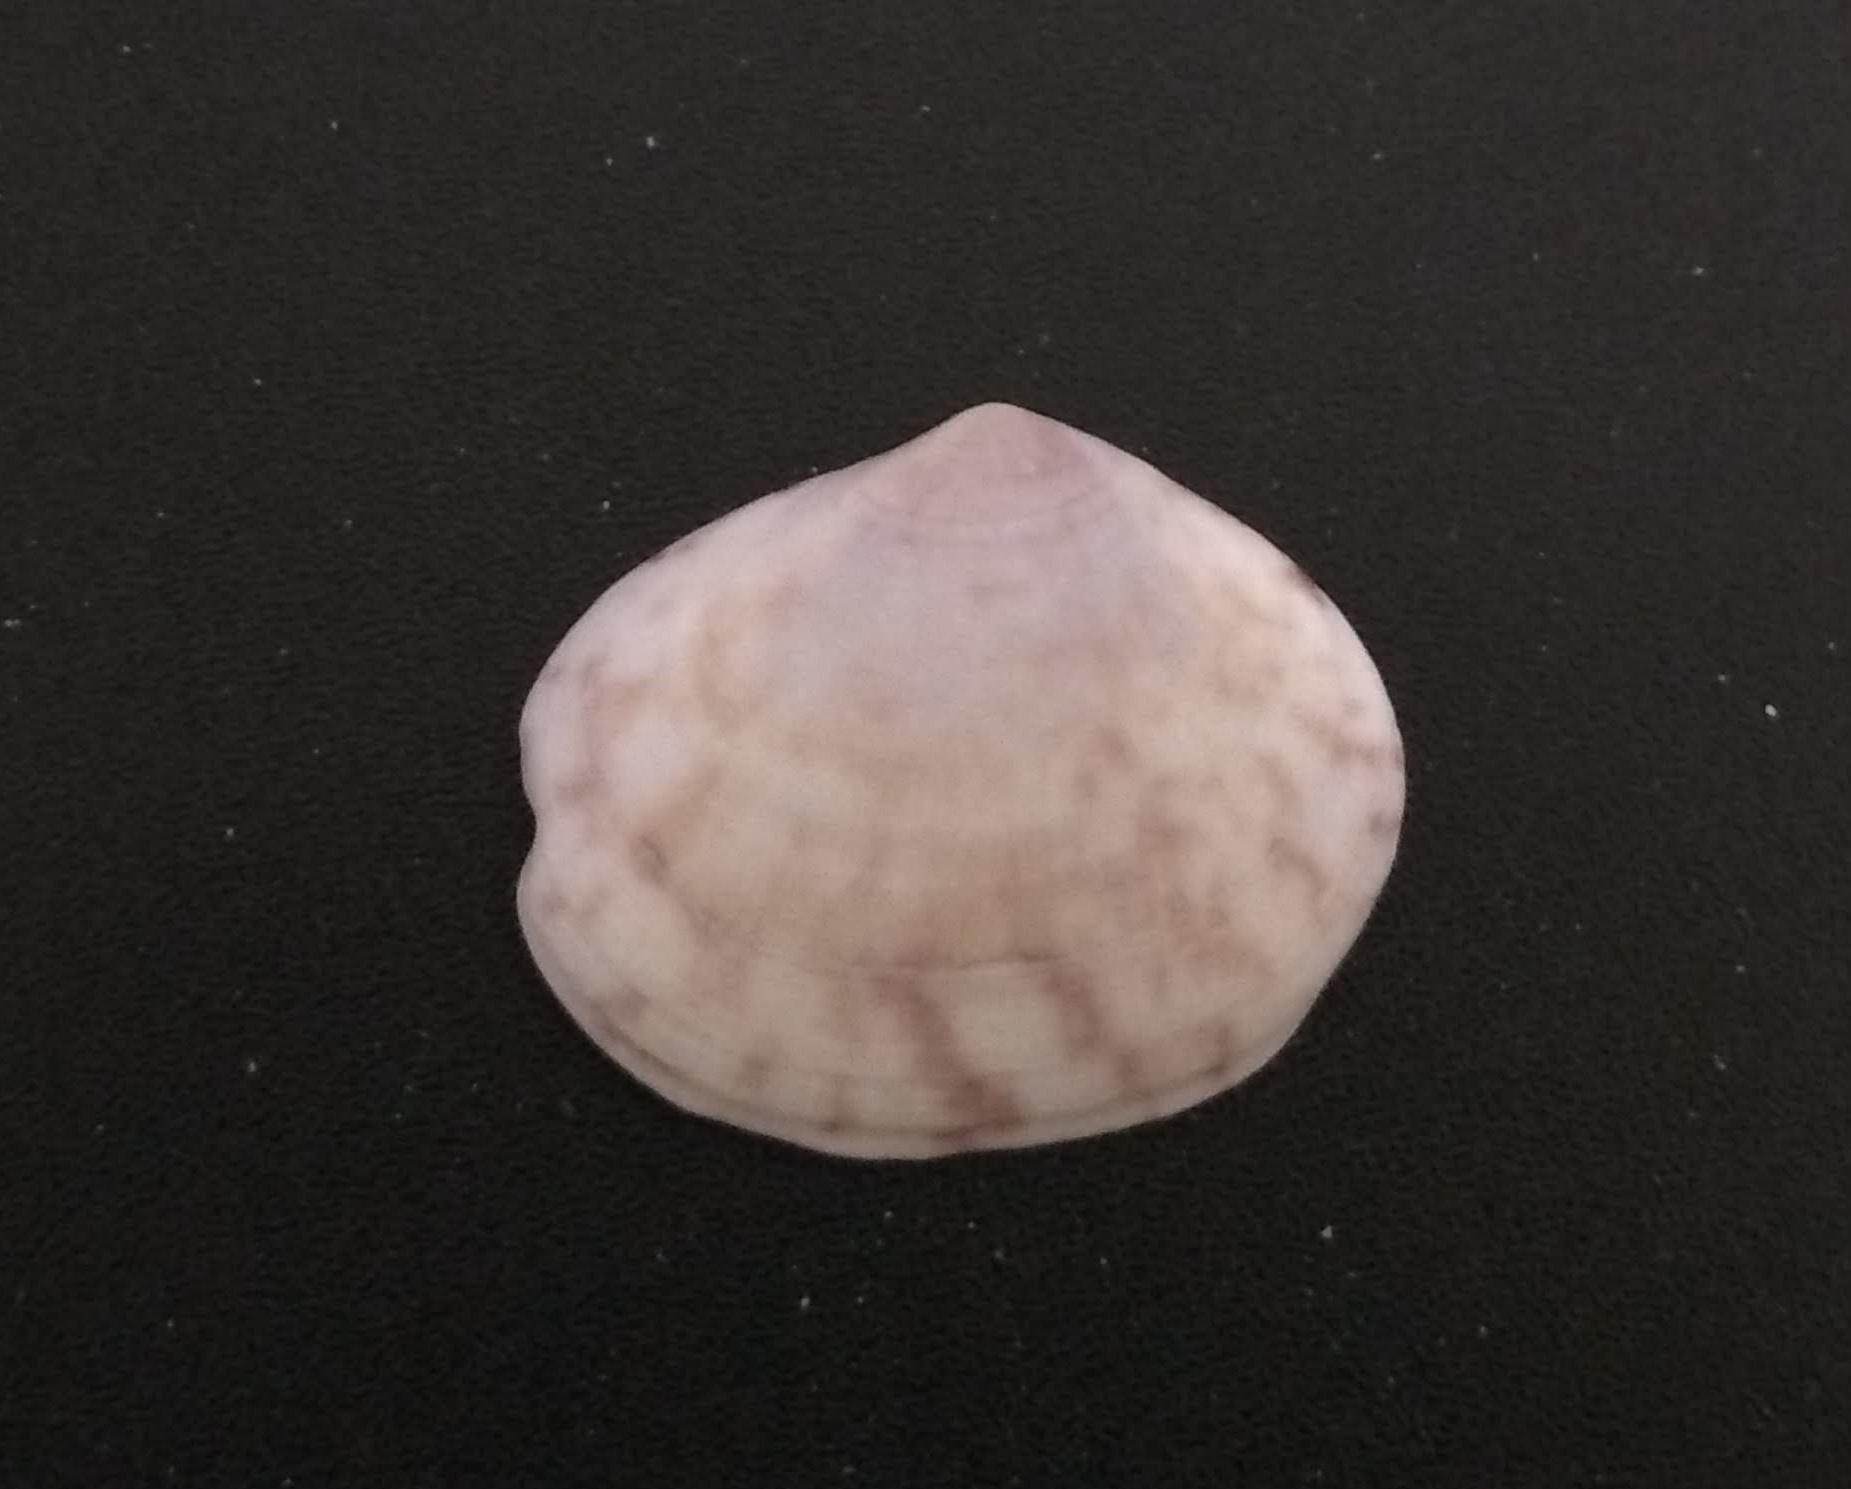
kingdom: Animalia
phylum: Mollusca
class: Bivalvia
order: Cardiida
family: Semelidae
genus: Semele
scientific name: Semele purpurascens
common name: Purplish semele
